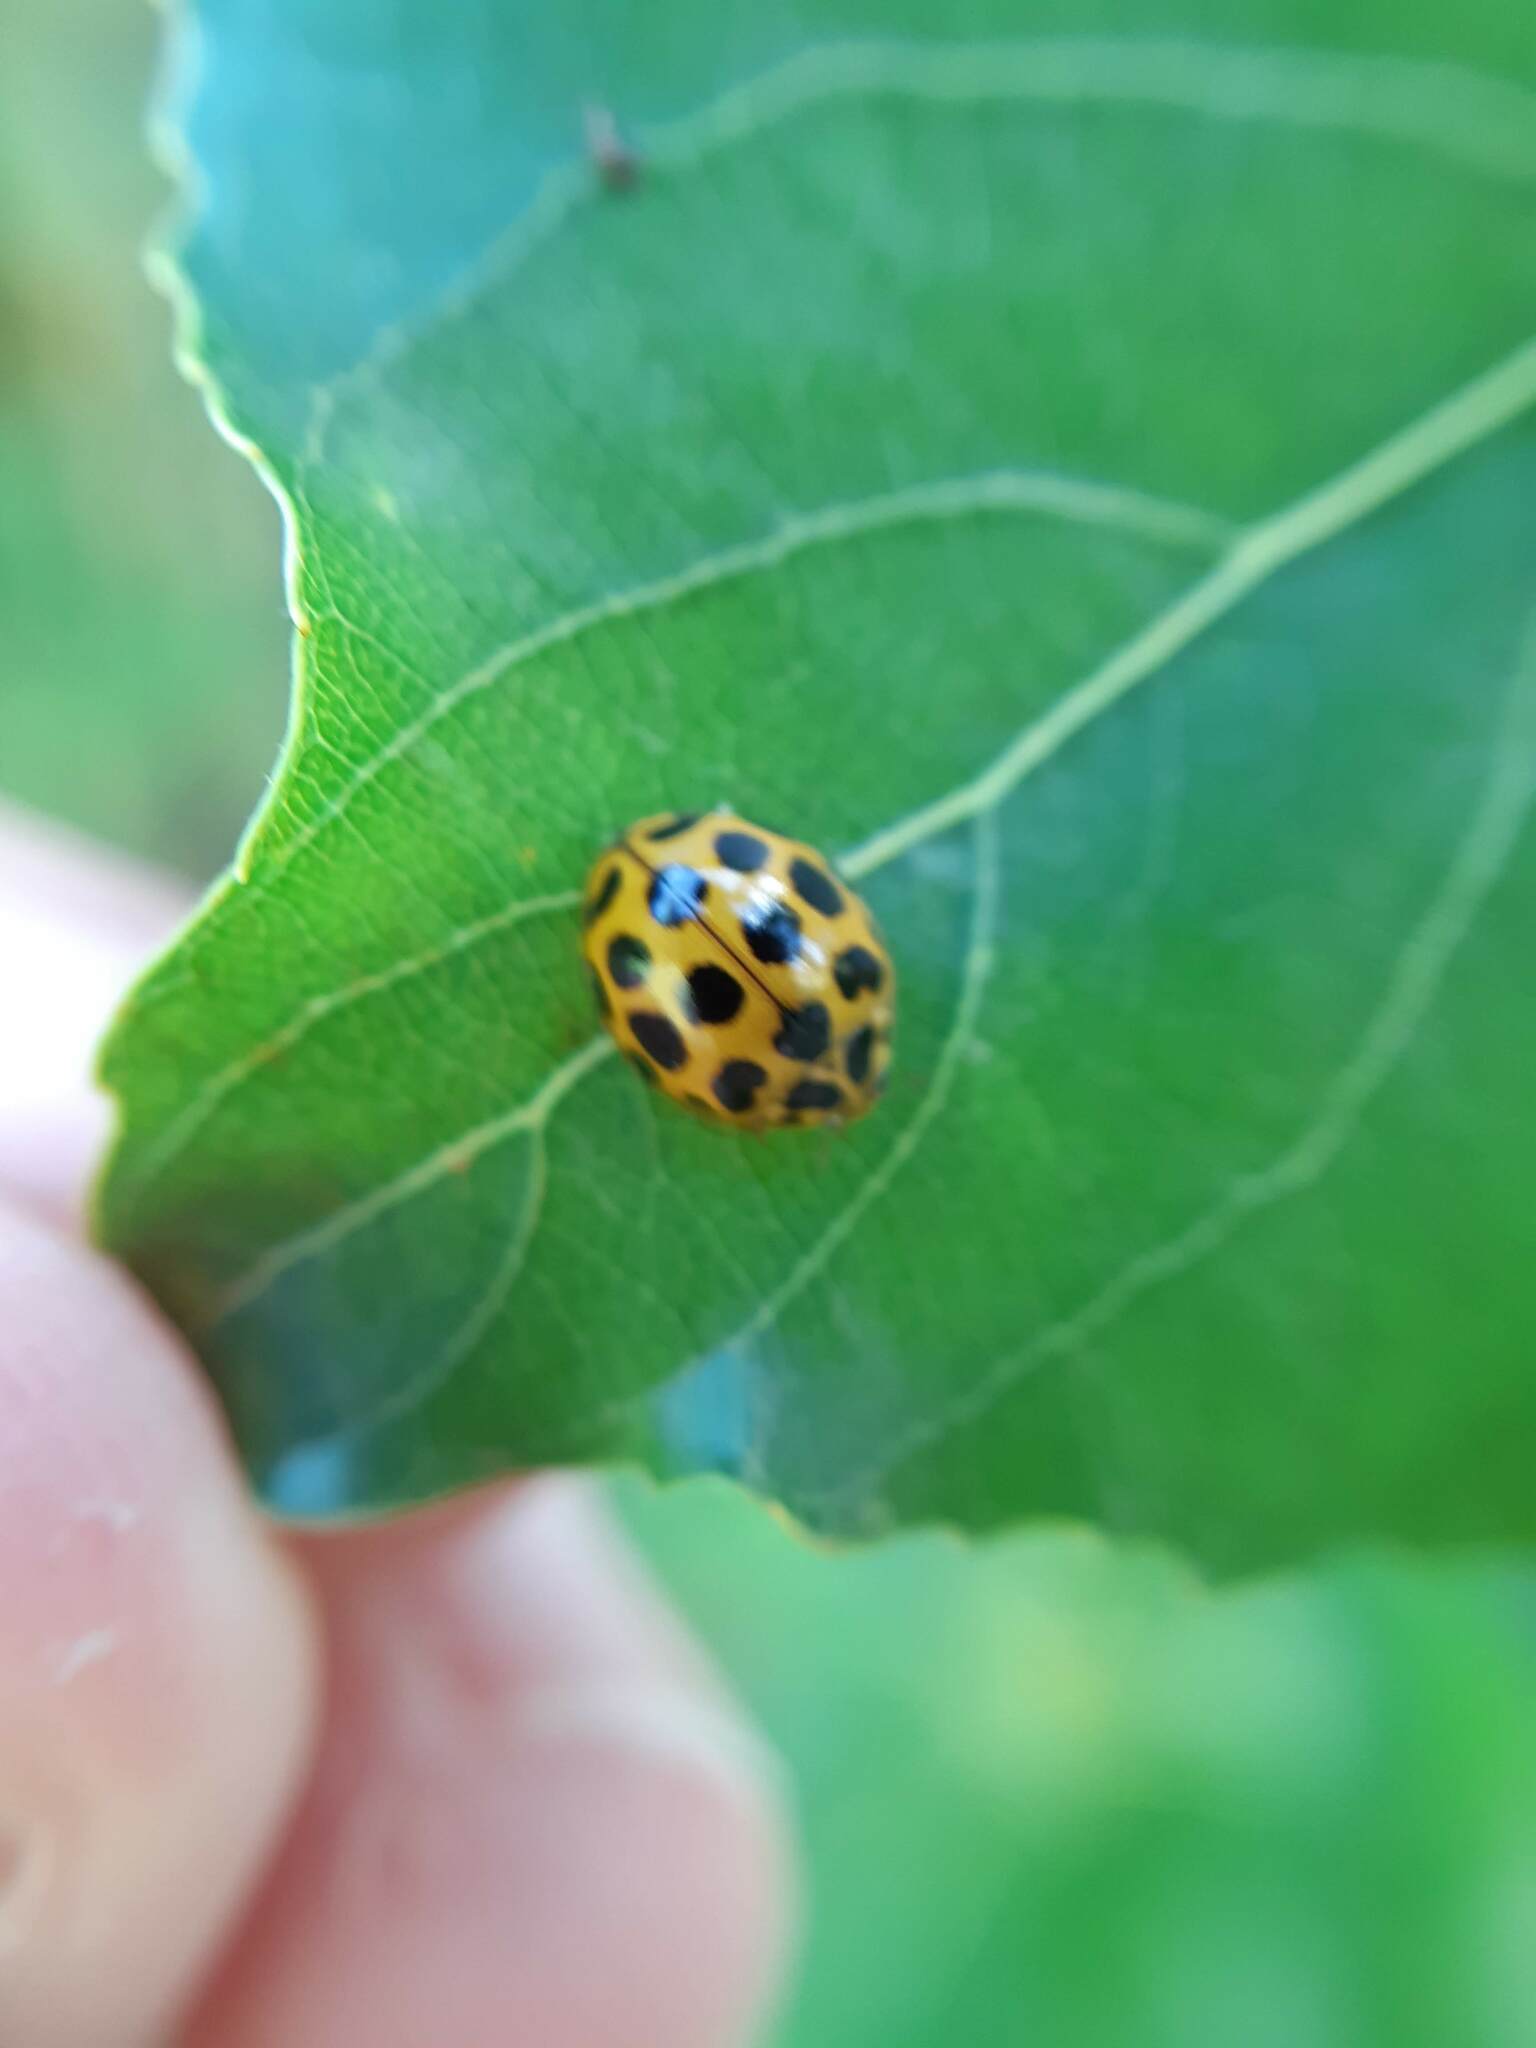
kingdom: Animalia
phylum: Arthropoda
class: Insecta
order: Coleoptera
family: Coccinellidae
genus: Harmonia
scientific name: Harmonia conformis
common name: Common spotted ladybird beetle
